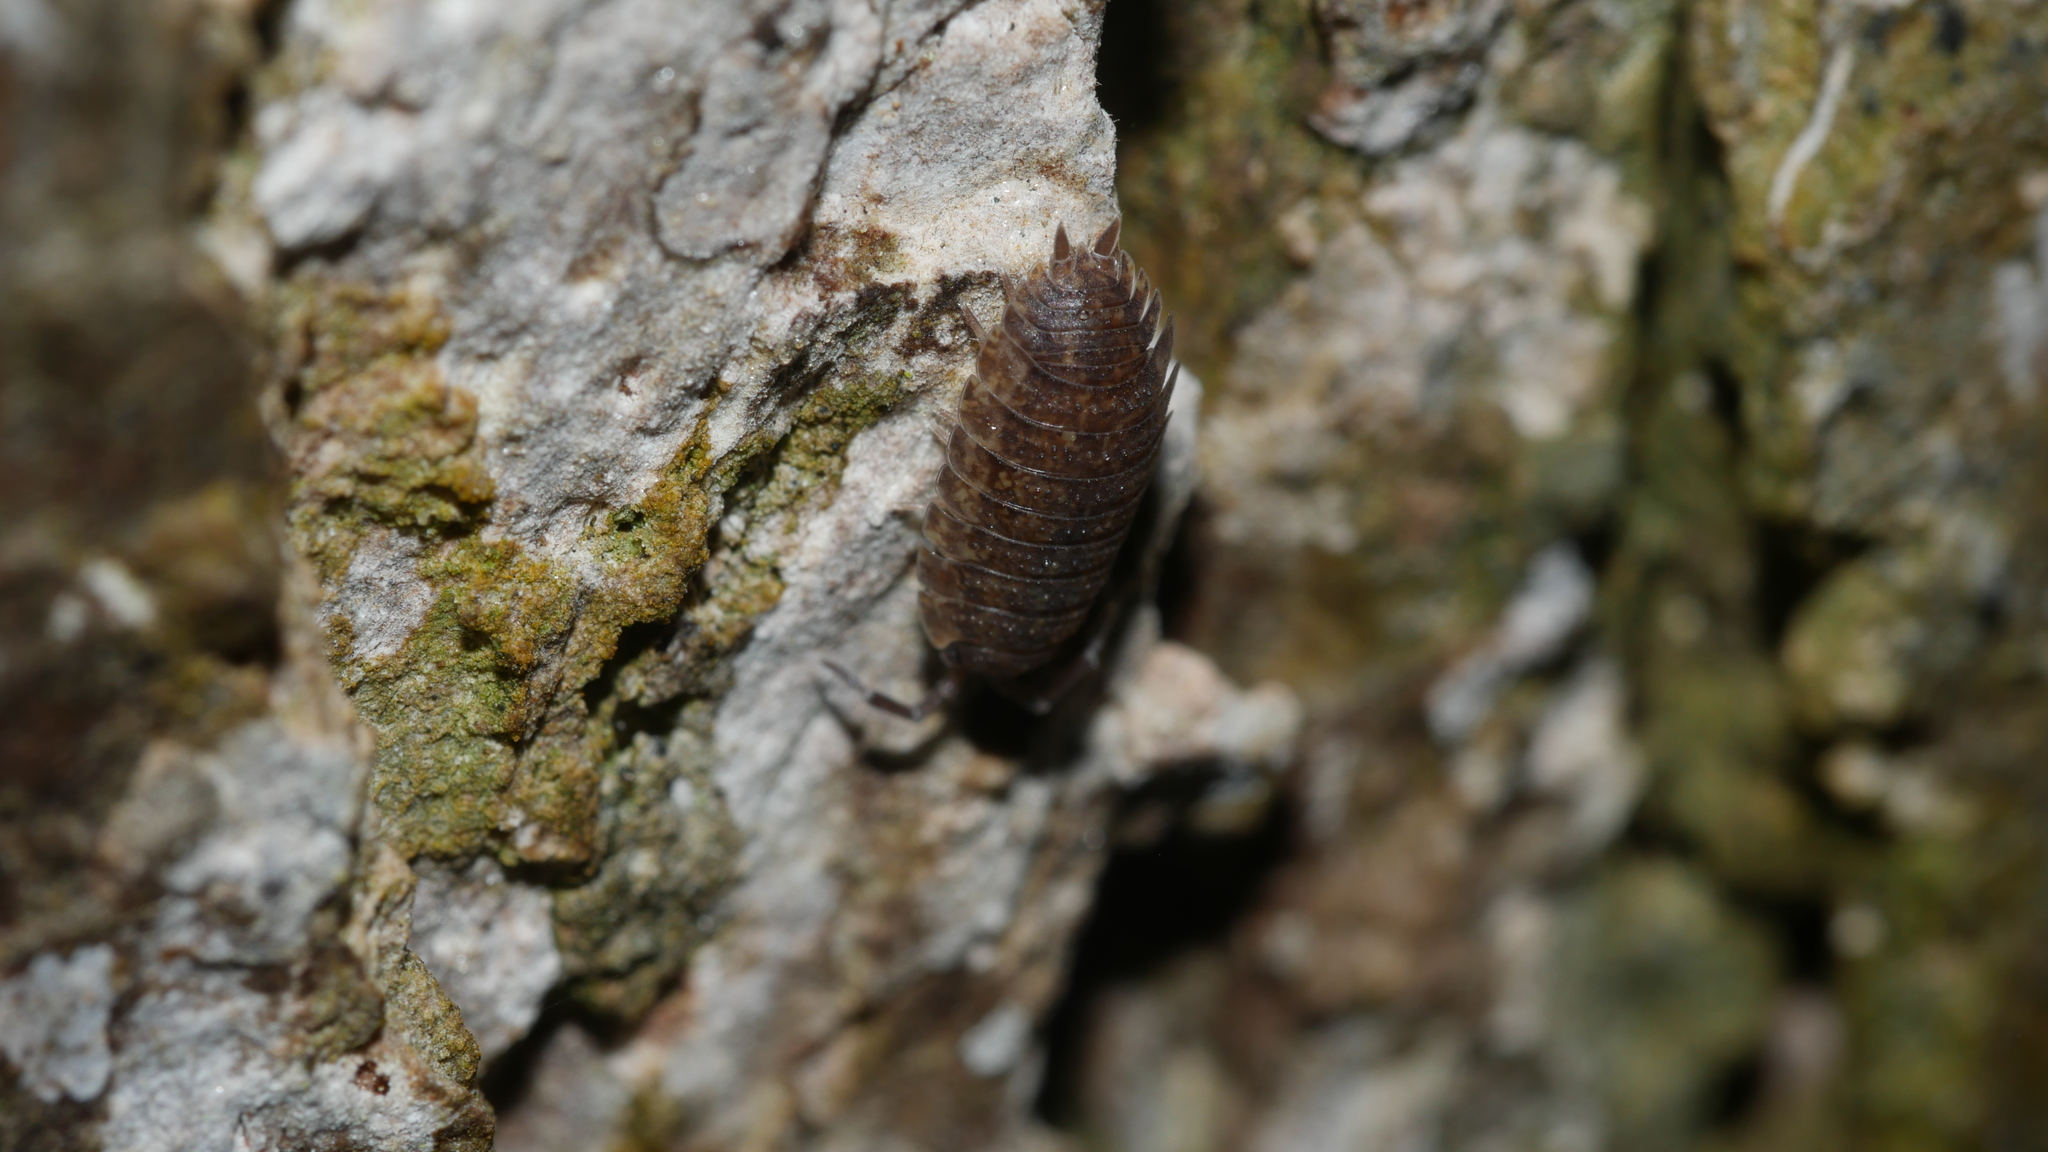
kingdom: Animalia
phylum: Arthropoda
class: Malacostraca
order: Isopoda
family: Porcellionidae
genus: Porcellio
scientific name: Porcellio scaber
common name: Common rough woodlouse
